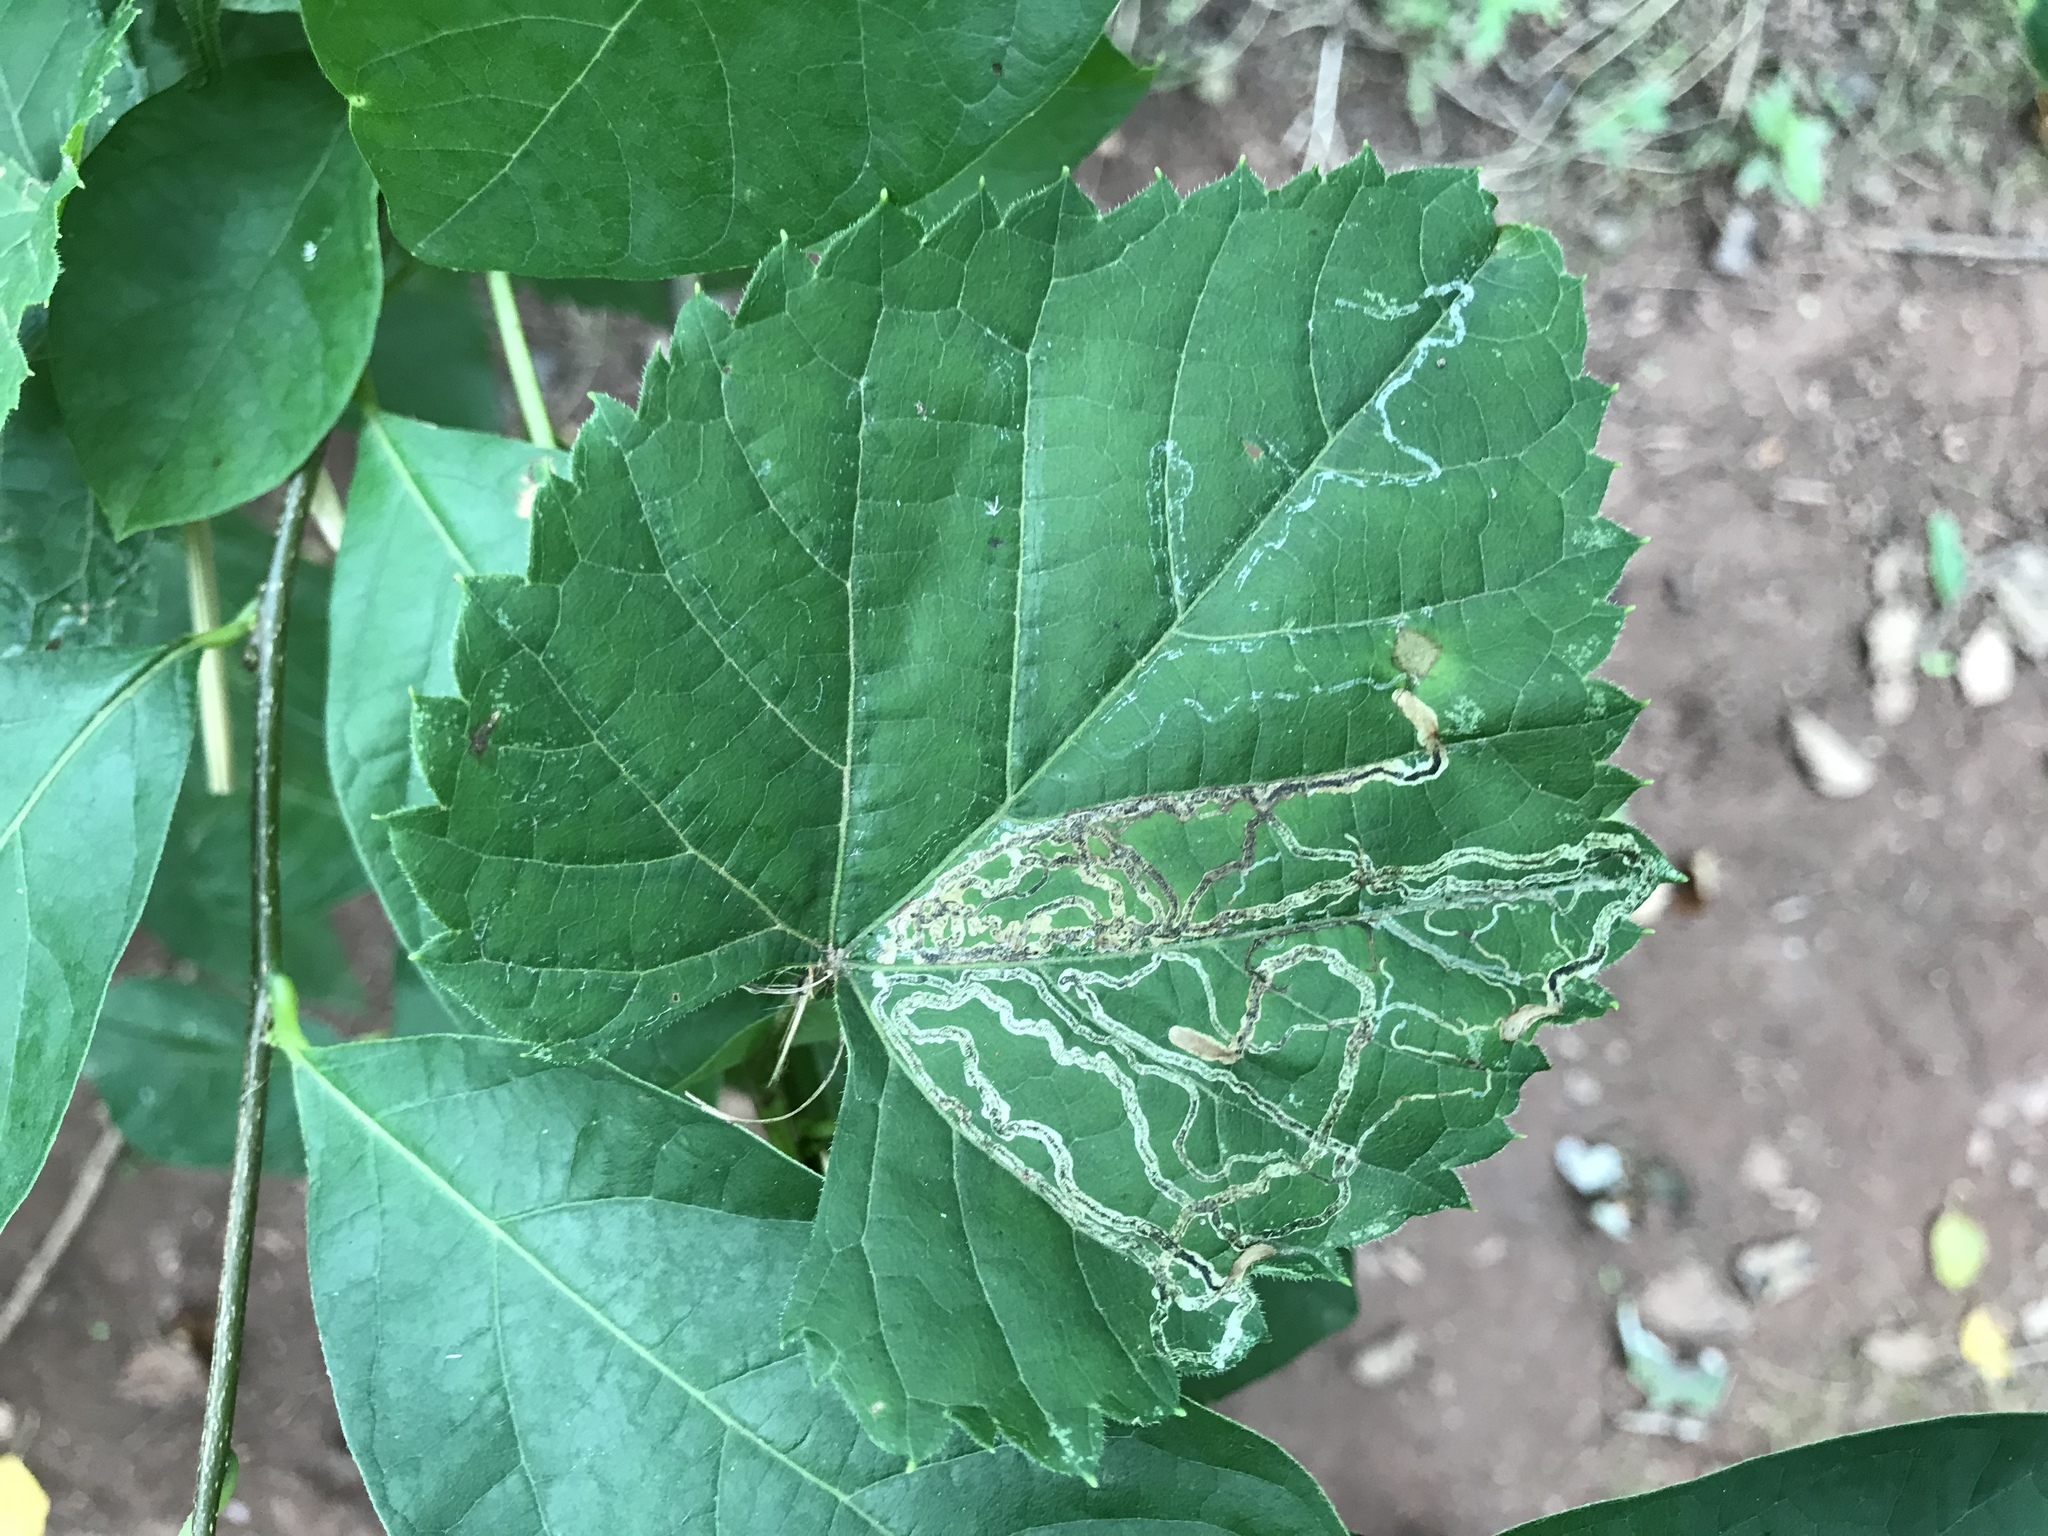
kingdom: Animalia
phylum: Arthropoda
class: Insecta
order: Lepidoptera
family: Gracillariidae
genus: Phyllocnistis
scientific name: Phyllocnistis vitifoliella
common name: Grape leaf-miner moth
